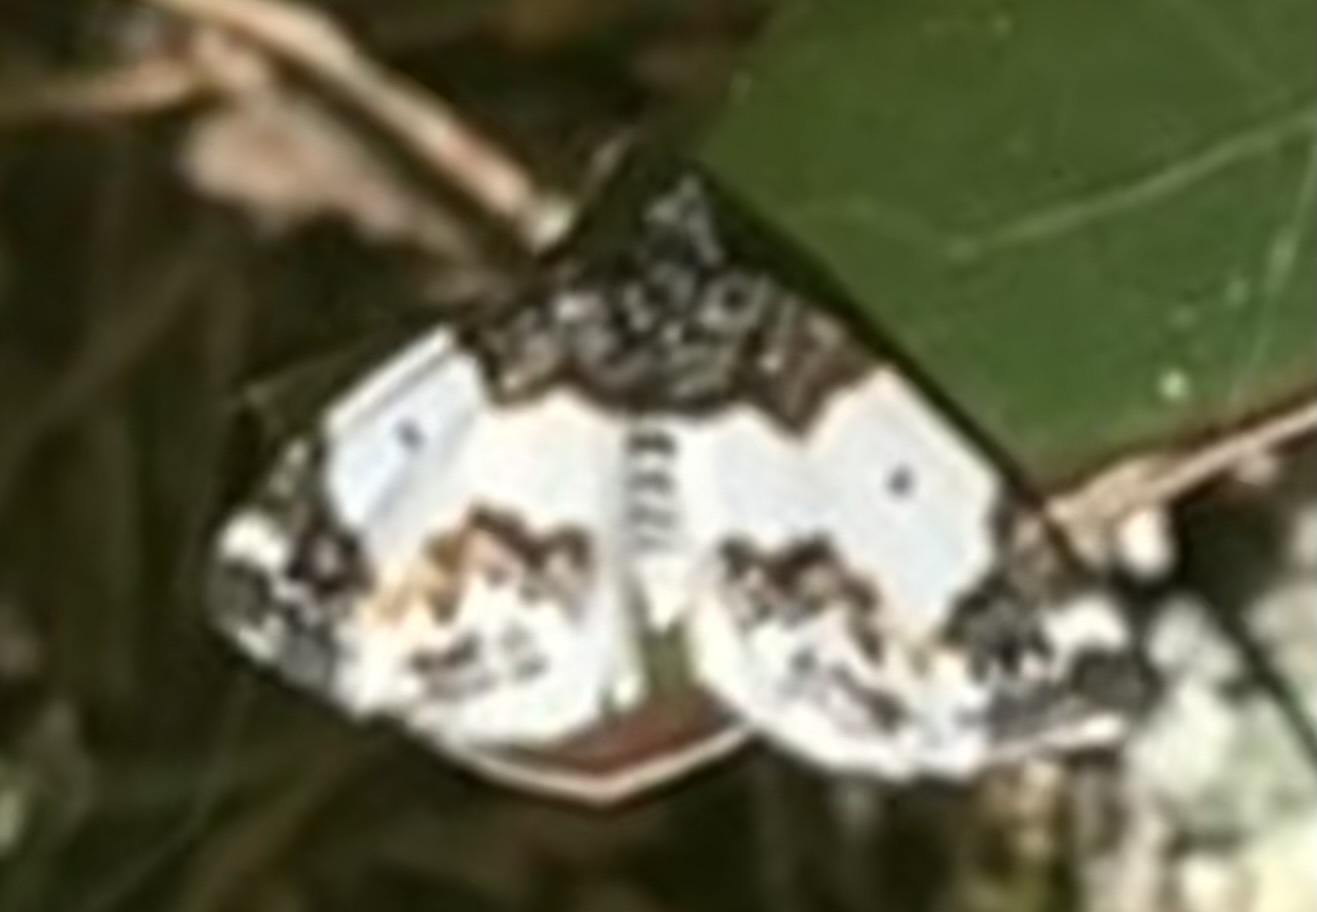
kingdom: Animalia
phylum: Arthropoda
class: Insecta
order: Lepidoptera
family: Geometridae
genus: Mesoleuca
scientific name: Mesoleuca gratulata
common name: Half-white carpet moth
